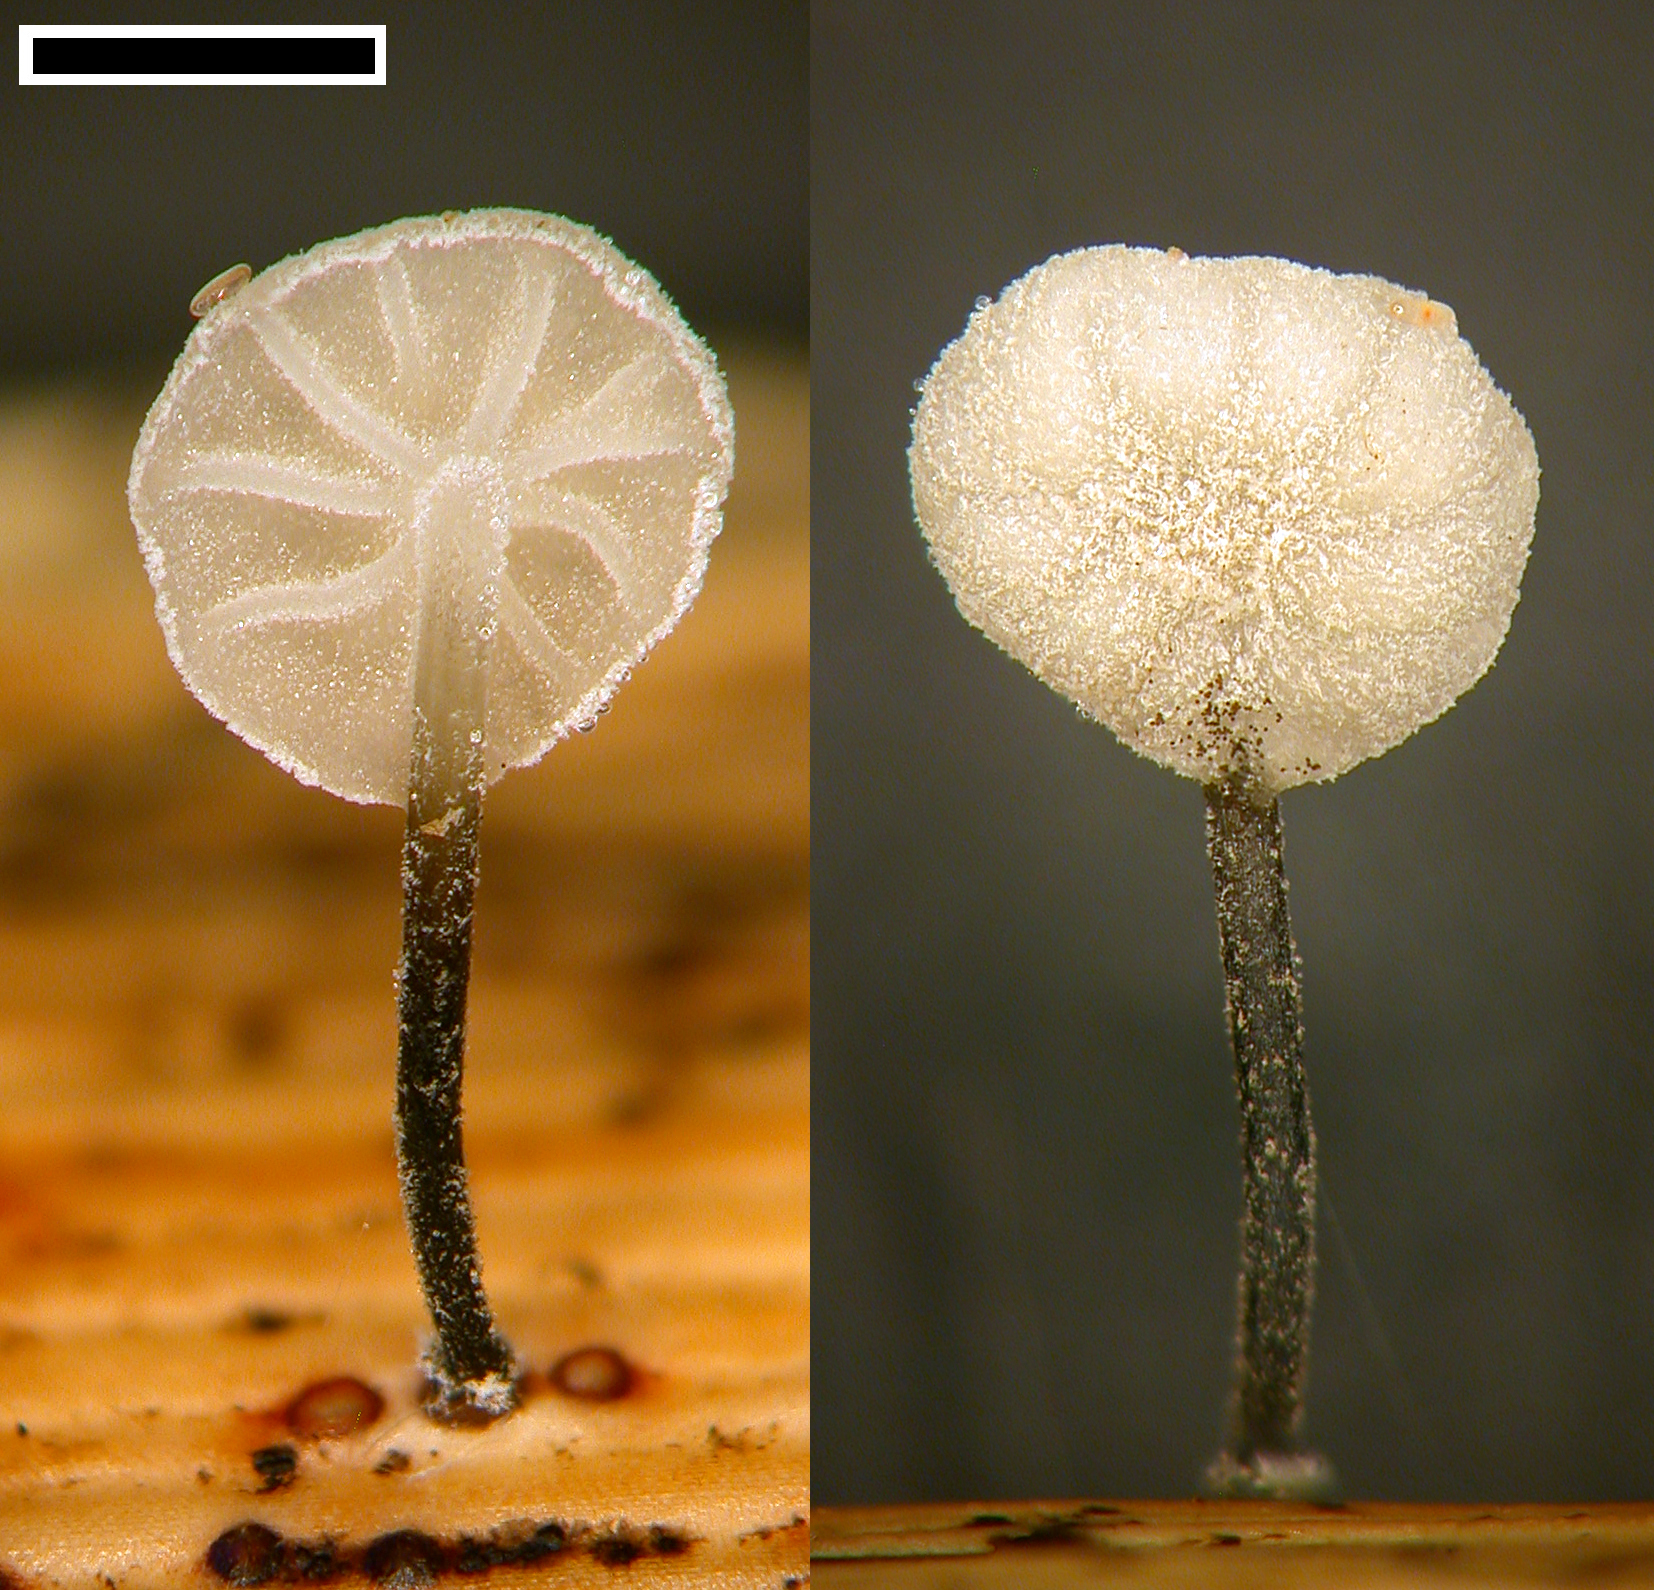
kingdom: Fungi
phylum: Basidiomycota
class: Agaricomycetes
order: Agaricales
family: Marasmiaceae
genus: Campanella
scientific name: Campanella
